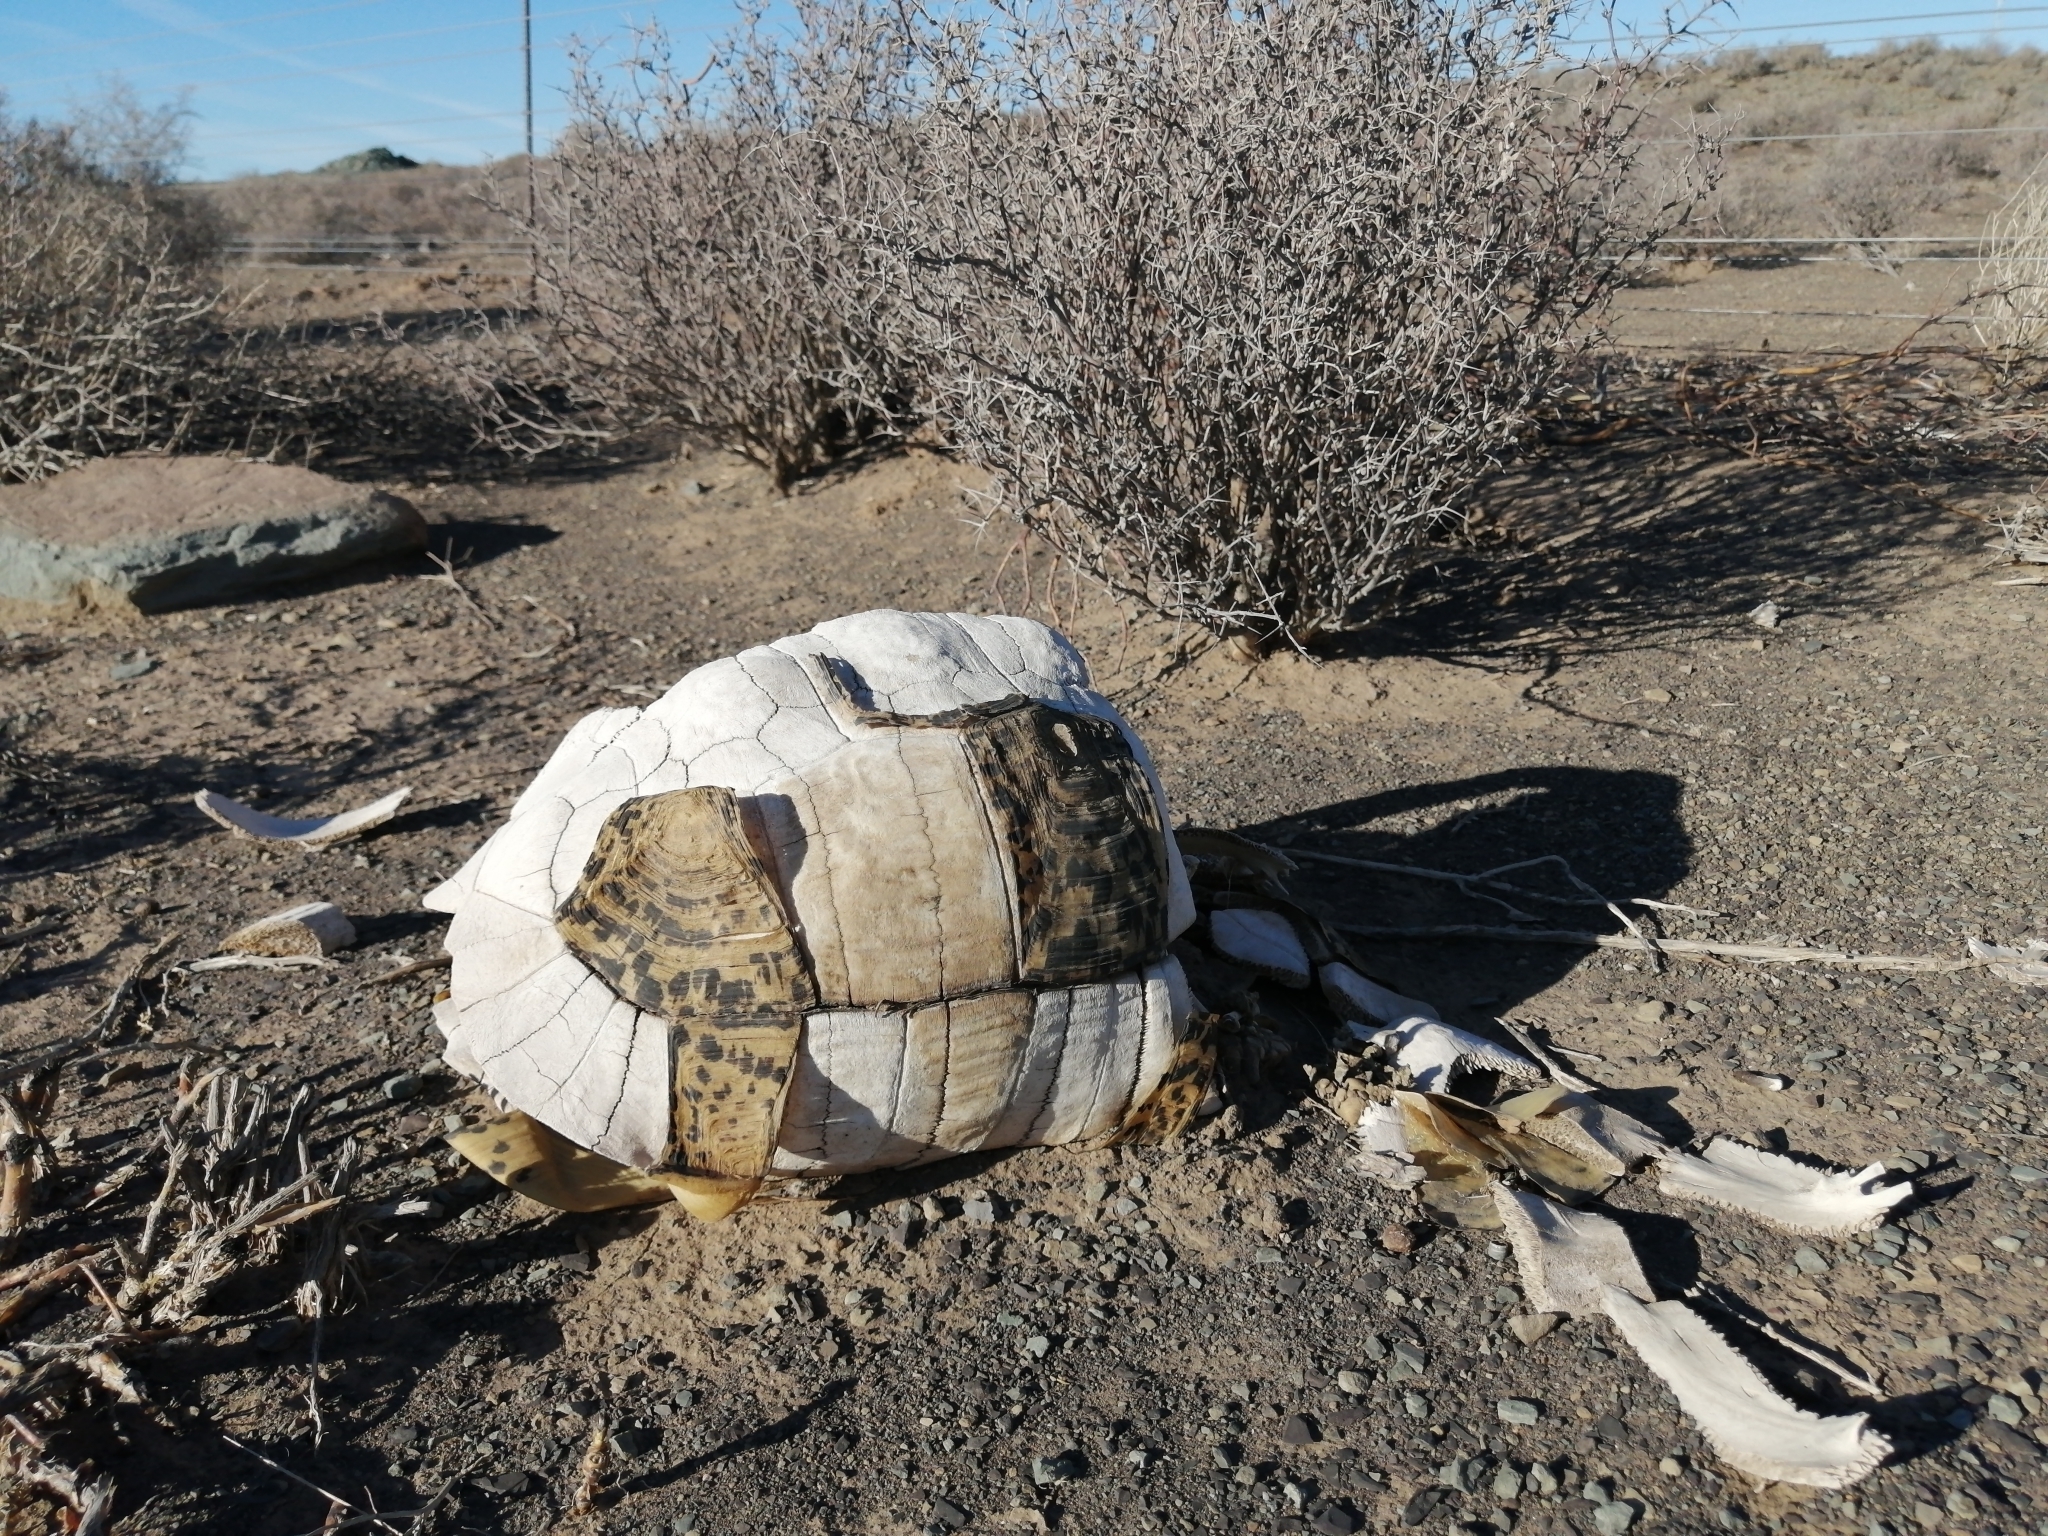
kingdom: Animalia
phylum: Chordata
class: Testudines
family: Testudinidae
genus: Stigmochelys
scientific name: Stigmochelys pardalis
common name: Leopard tortoise
